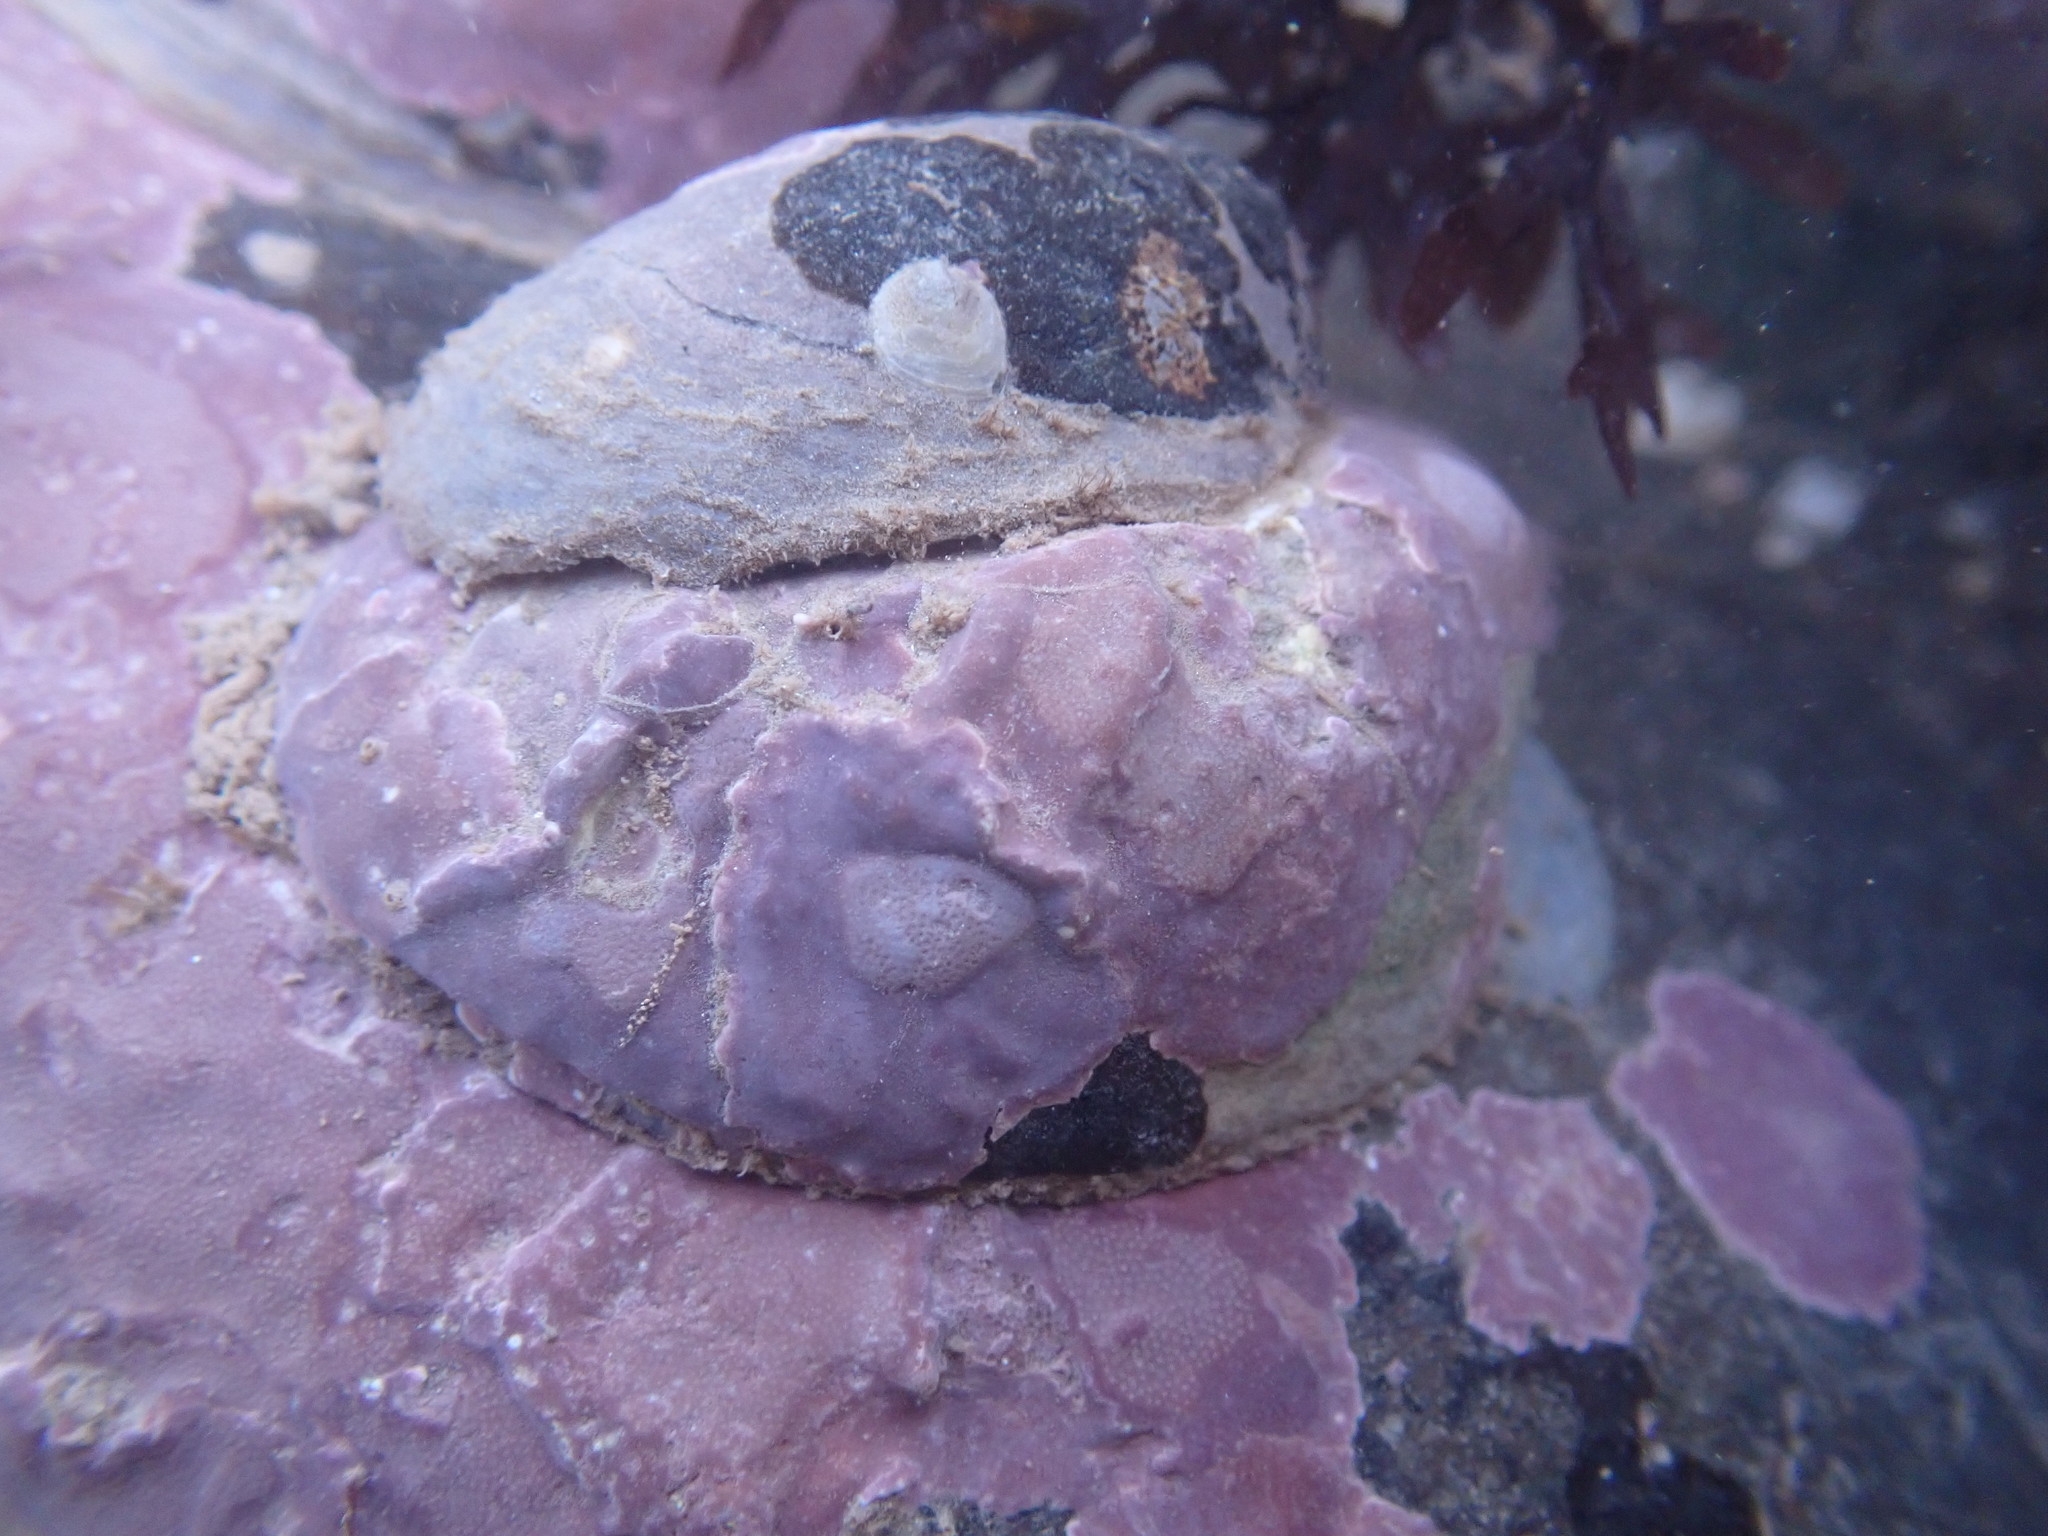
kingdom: Animalia
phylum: Mollusca
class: Gastropoda
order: Littorinimorpha
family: Calyptraeidae
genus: Crepidula
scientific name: Crepidula fornicata
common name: Slipper limpet
